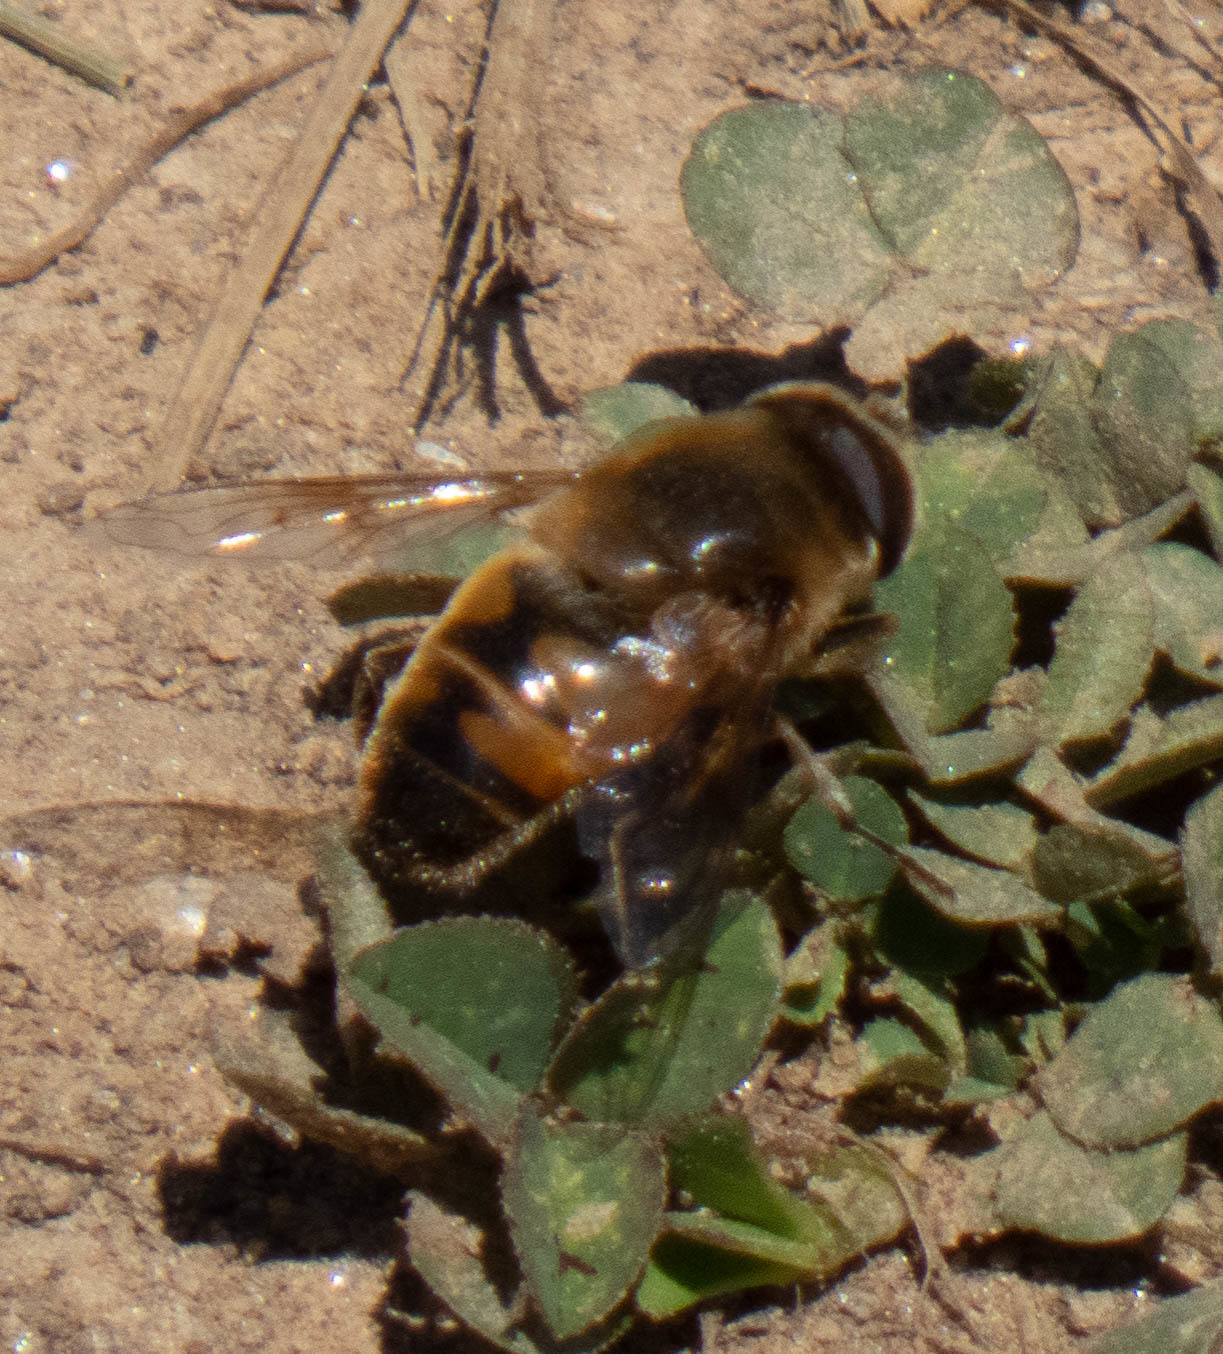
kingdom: Animalia
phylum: Arthropoda
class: Insecta
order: Diptera
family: Syrphidae
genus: Eristalis
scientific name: Eristalis tenax
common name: Drone fly
